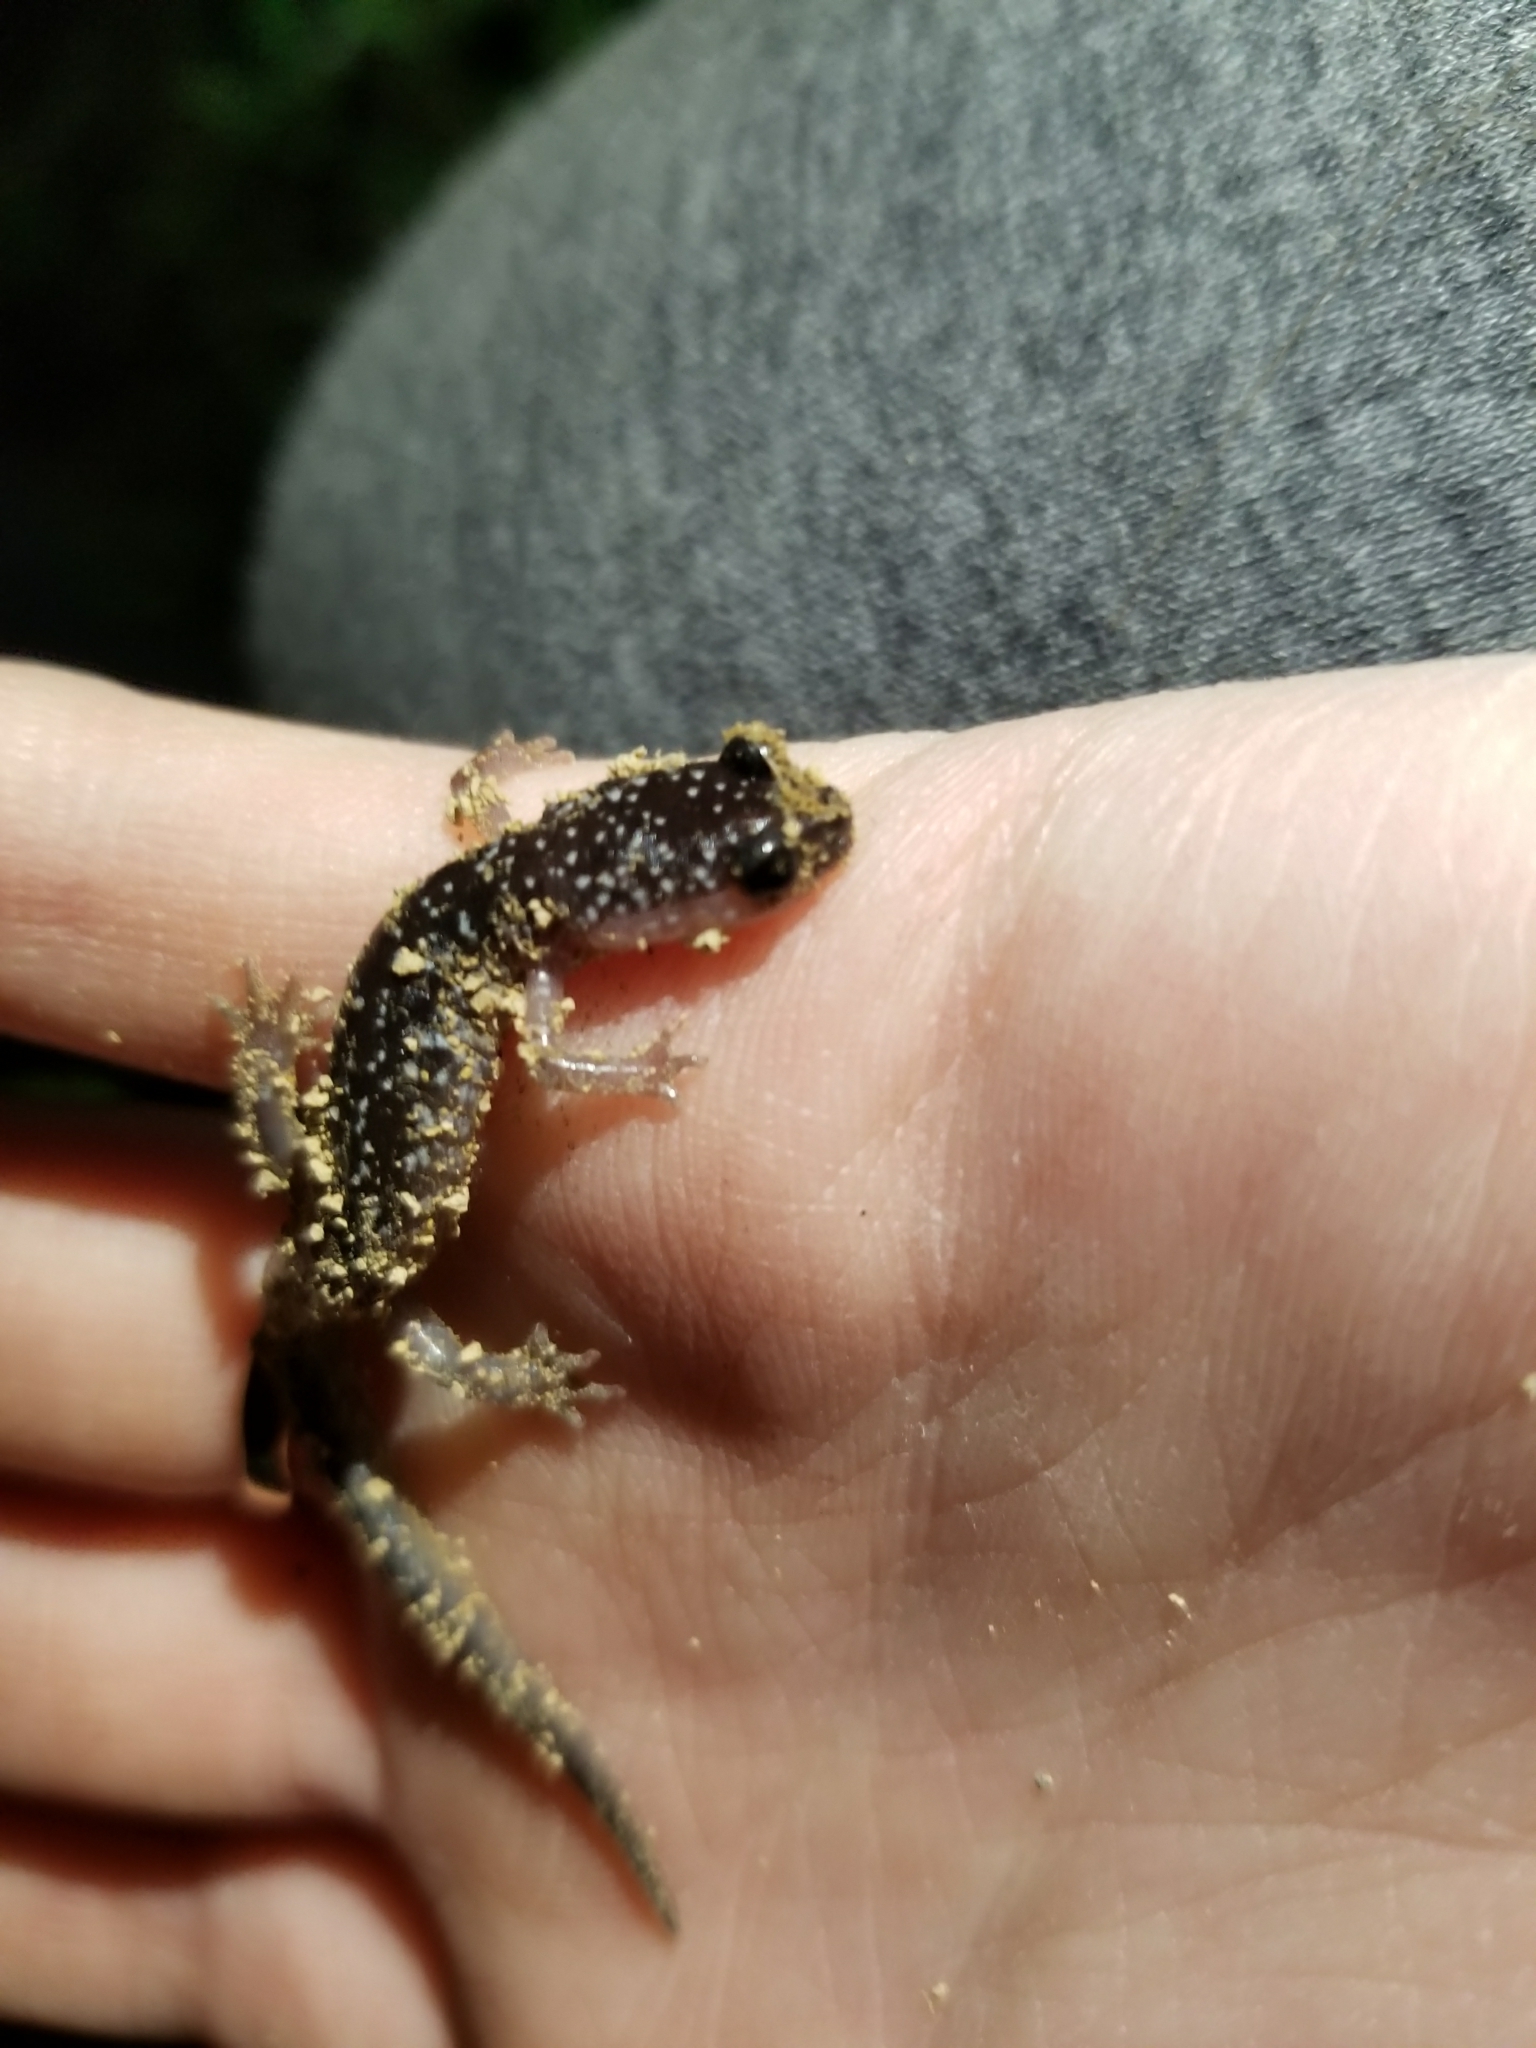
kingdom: Animalia
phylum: Chordata
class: Amphibia
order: Caudata
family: Plethodontidae
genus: Plethodon
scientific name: Plethodon glutinosus
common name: Northern slimy salamander
